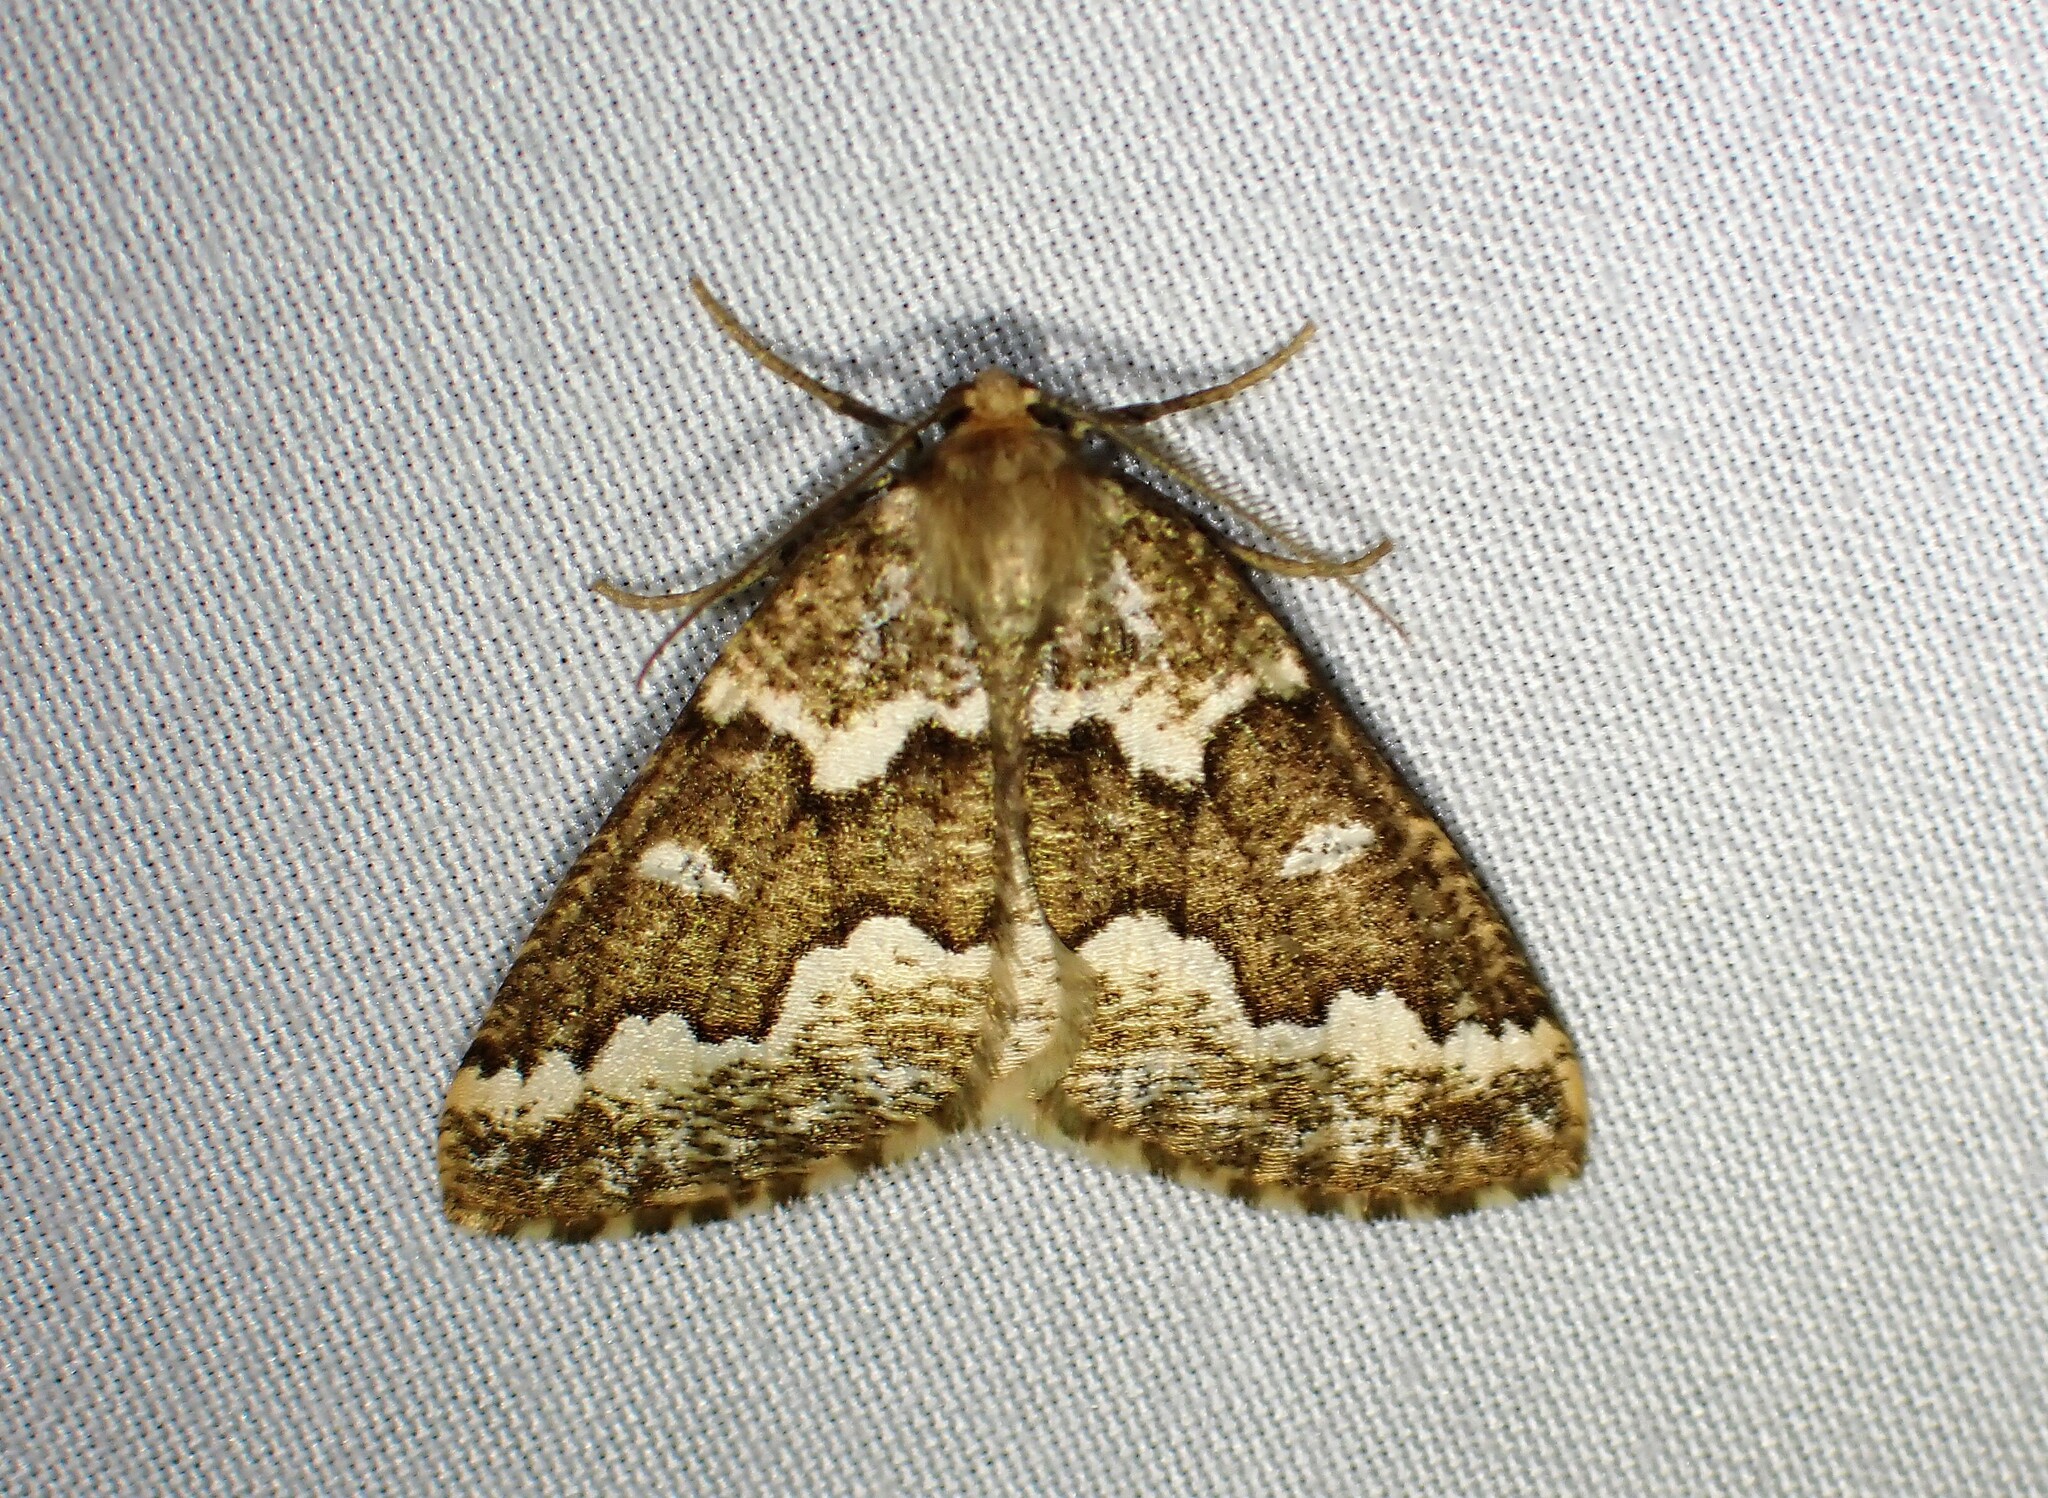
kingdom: Animalia
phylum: Arthropoda
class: Insecta
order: Lepidoptera
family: Geometridae
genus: Caripeta
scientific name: Caripeta divisata
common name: Gray spruce looper
